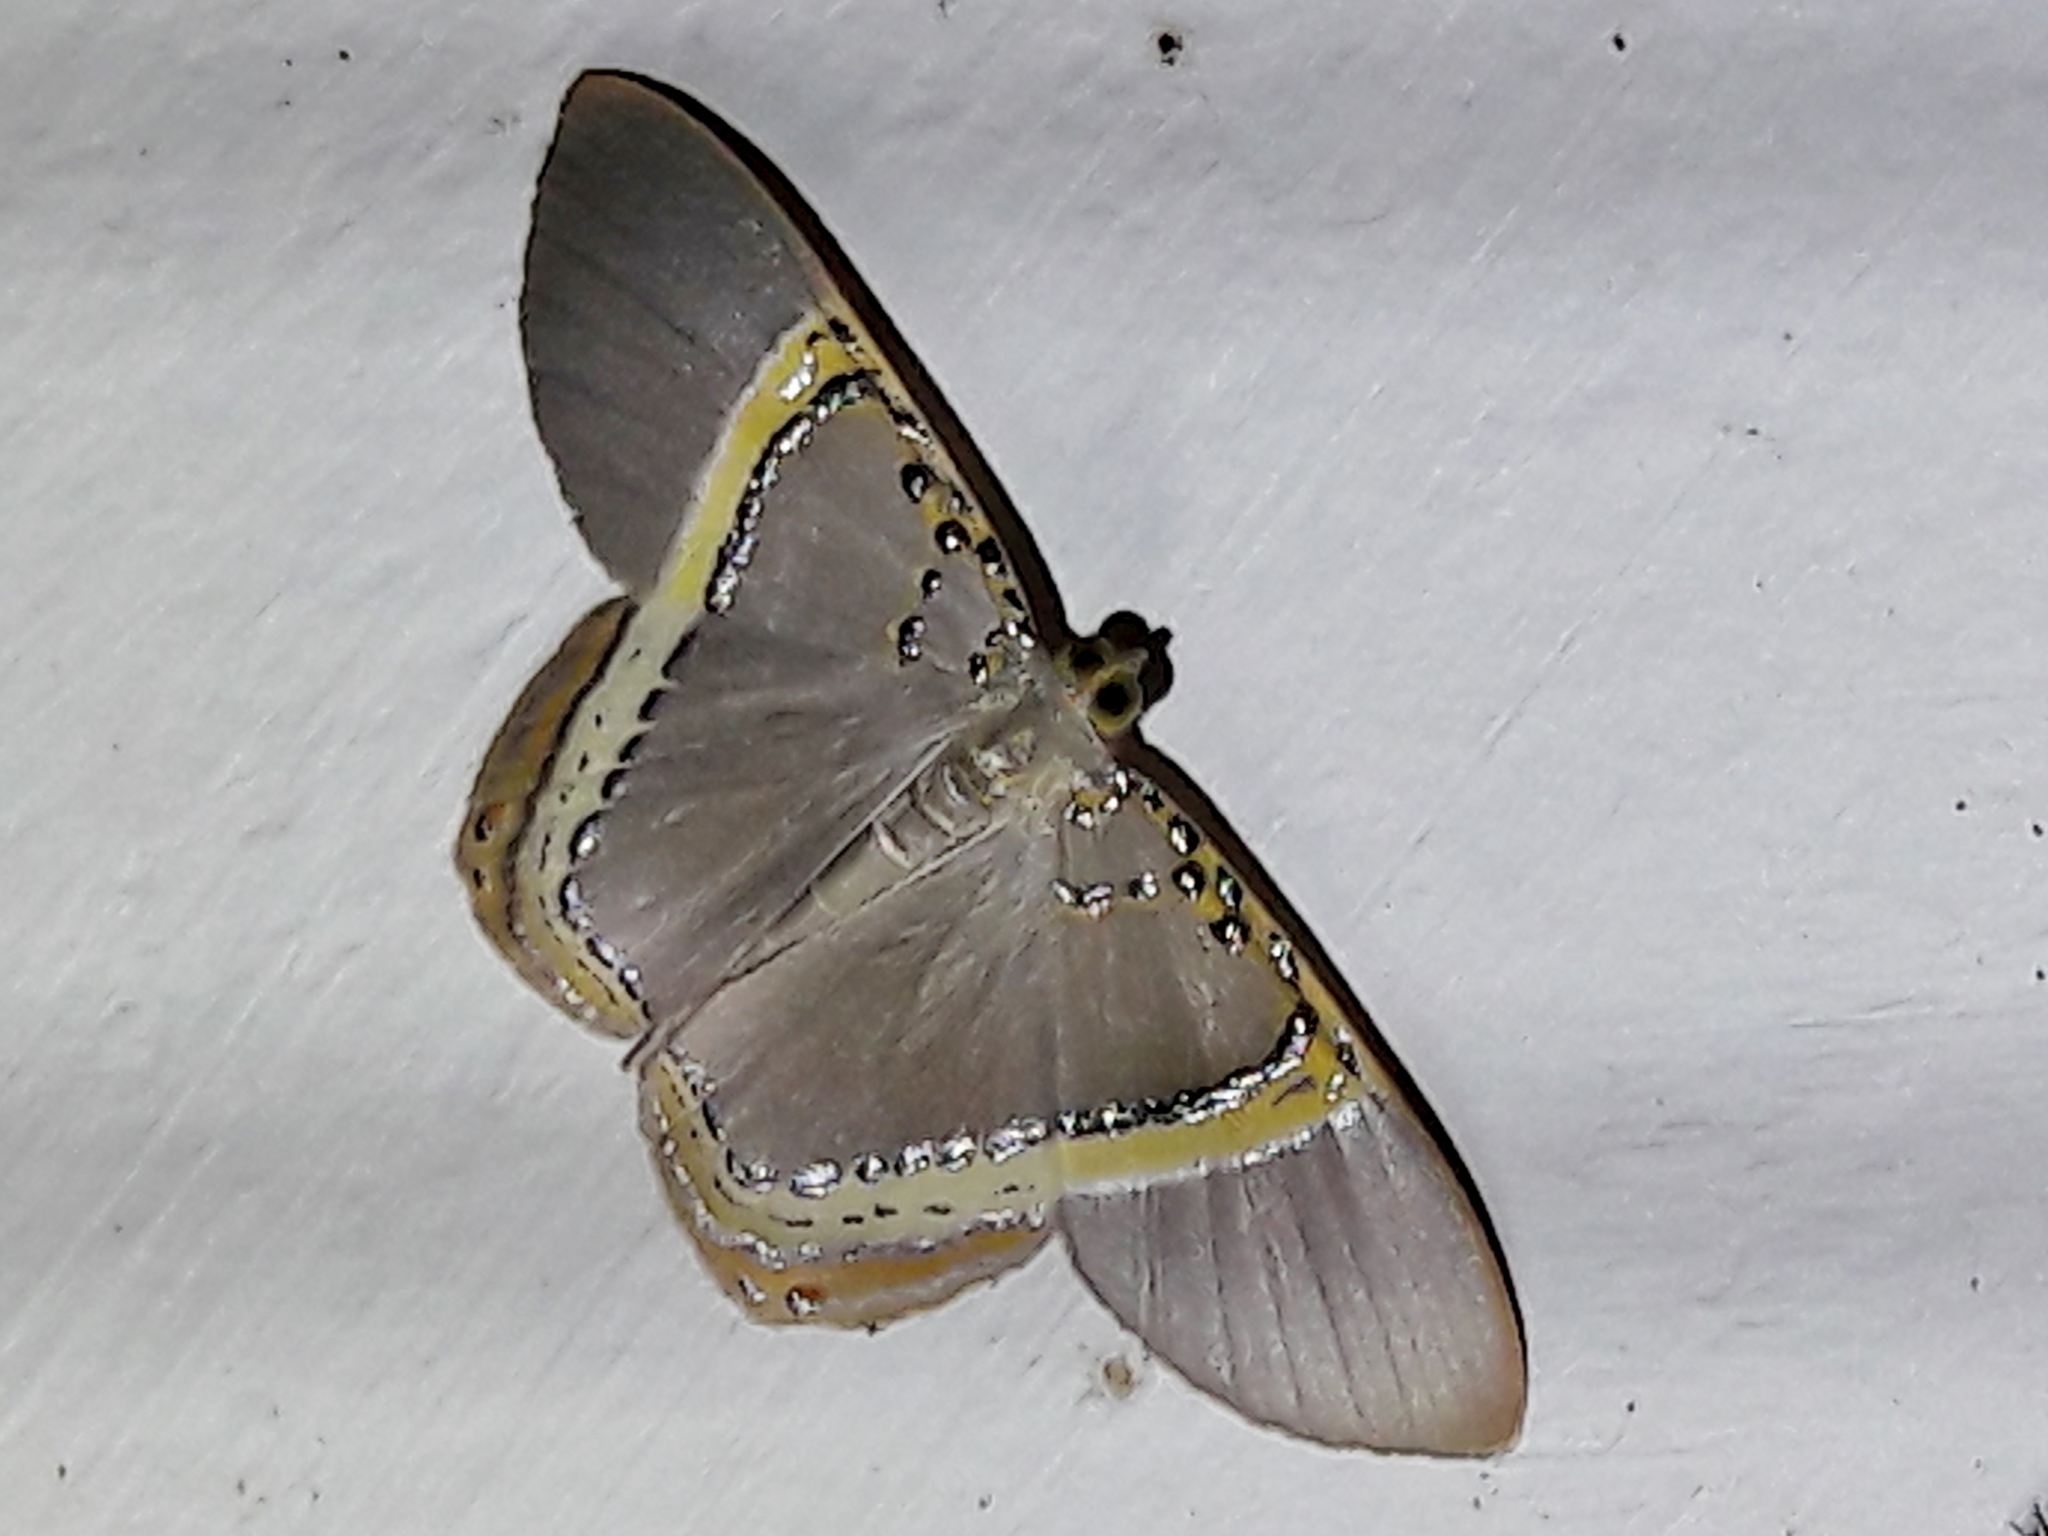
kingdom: Animalia
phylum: Arthropoda
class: Insecta
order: Lepidoptera
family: Geometridae
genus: Phrygionis
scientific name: Phrygionis paradoxata
